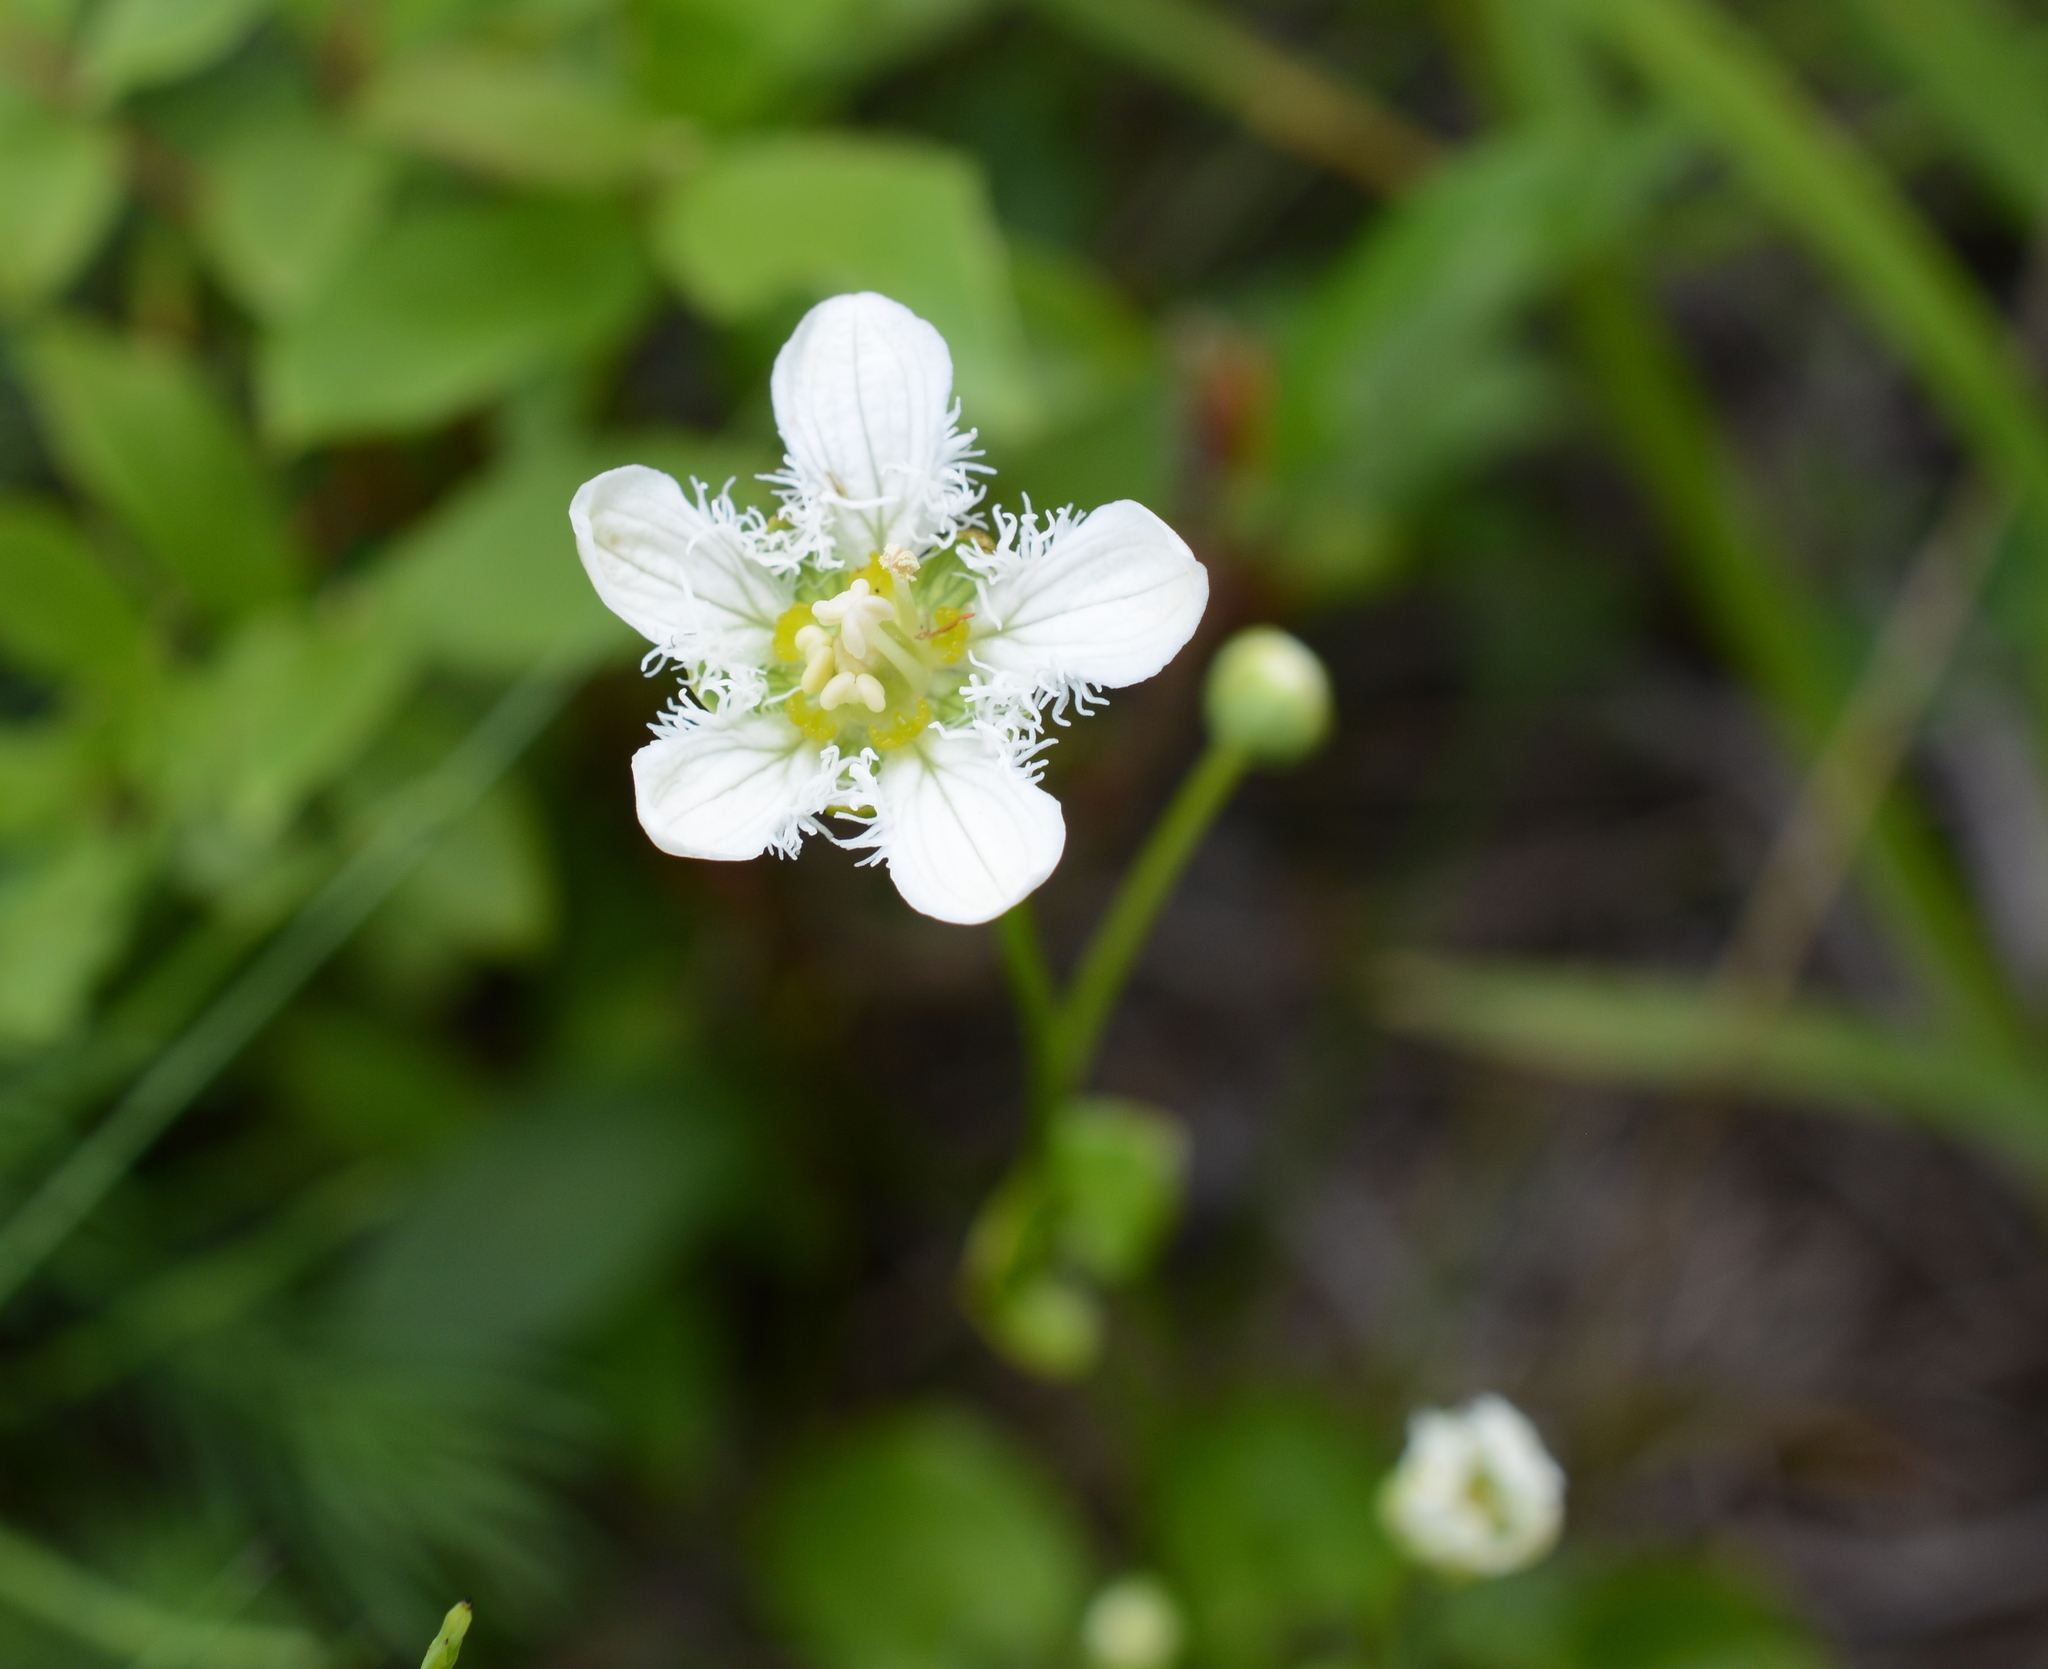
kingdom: Plantae
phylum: Tracheophyta
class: Magnoliopsida
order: Celastrales
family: Parnassiaceae
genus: Parnassia
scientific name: Parnassia fimbriata
